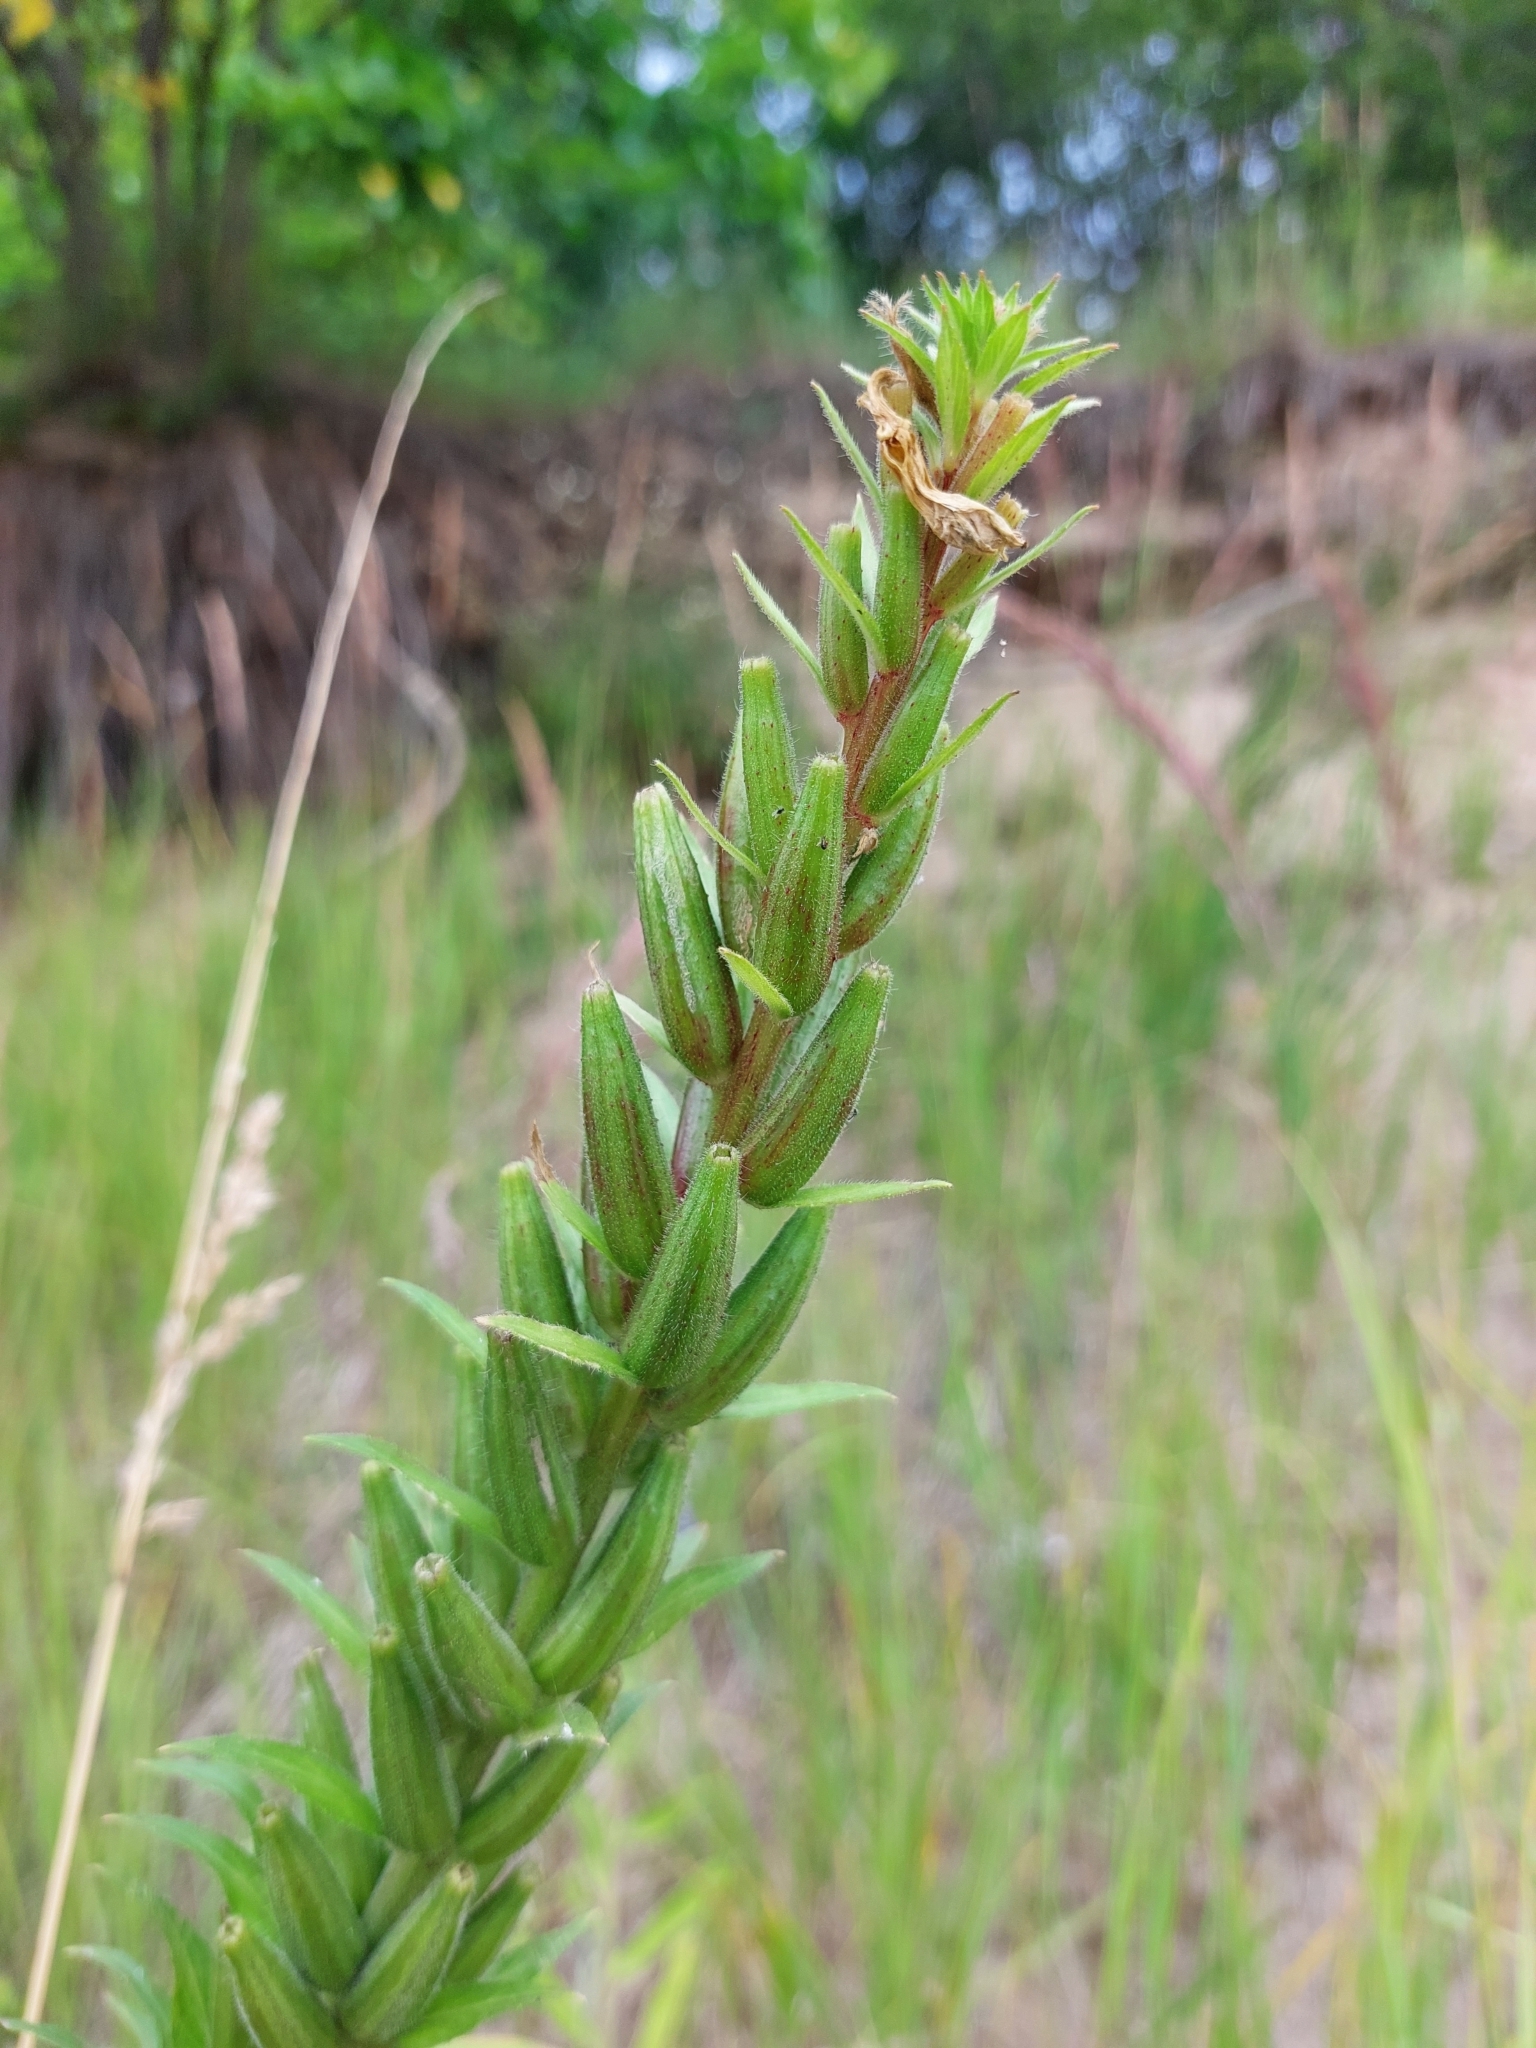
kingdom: Plantae
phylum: Tracheophyta
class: Magnoliopsida
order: Myrtales
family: Onagraceae
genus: Oenothera
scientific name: Oenothera rubricaulis
